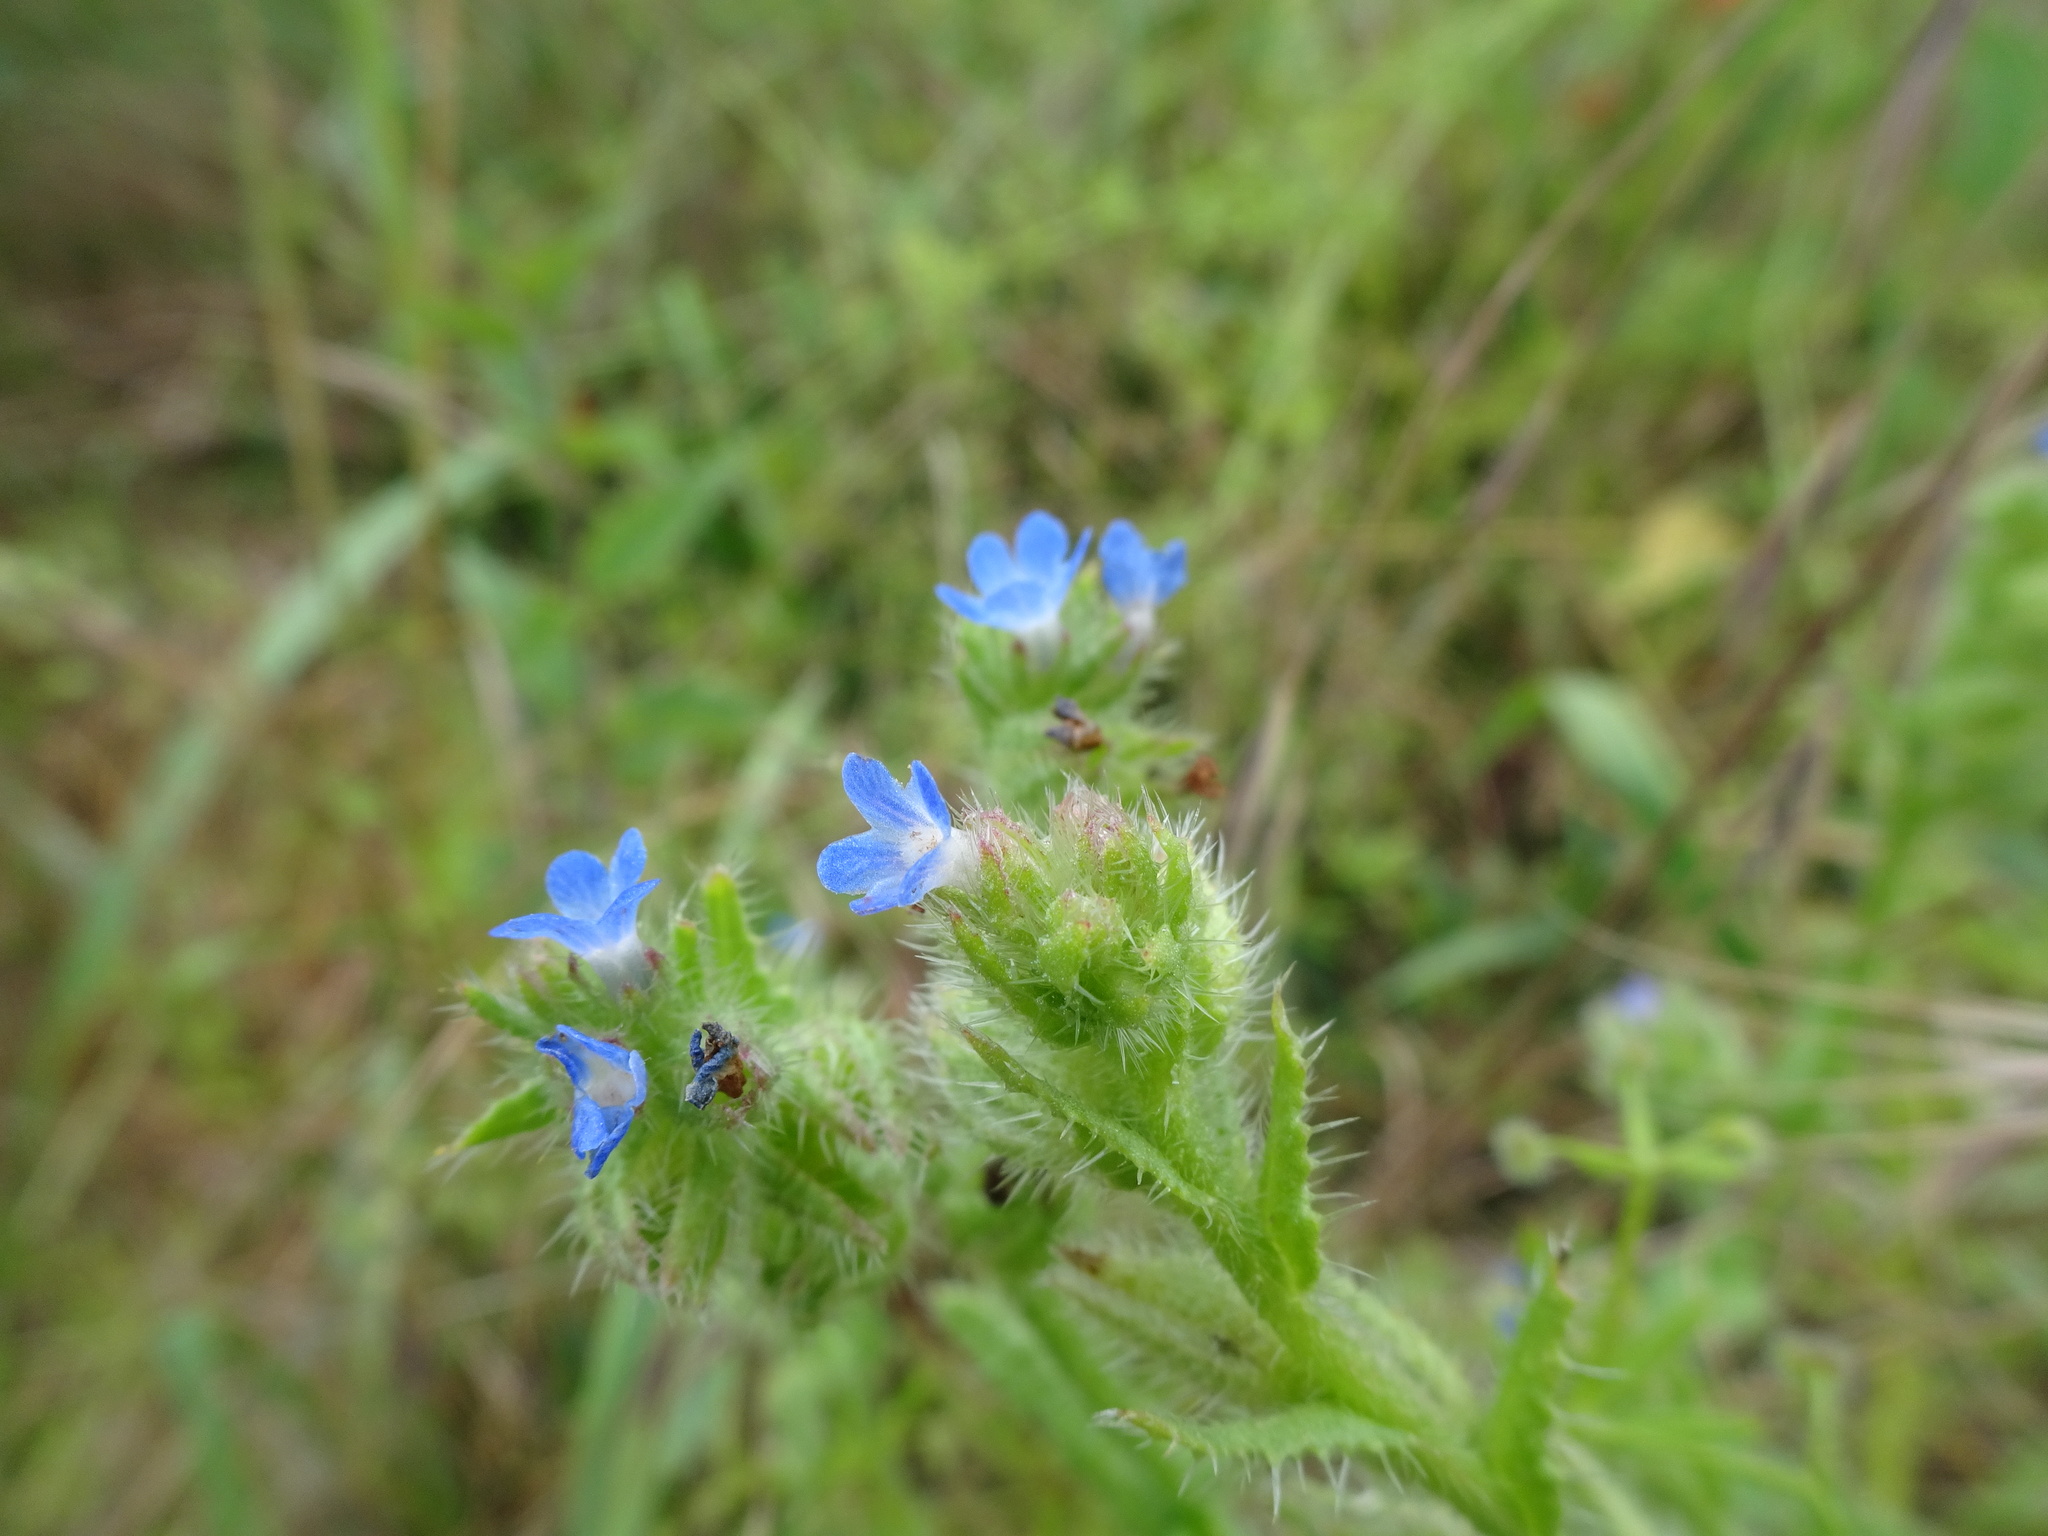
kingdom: Plantae
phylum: Tracheophyta
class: Magnoliopsida
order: Boraginales
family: Boraginaceae
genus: Lycopsis
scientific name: Lycopsis arvensis
